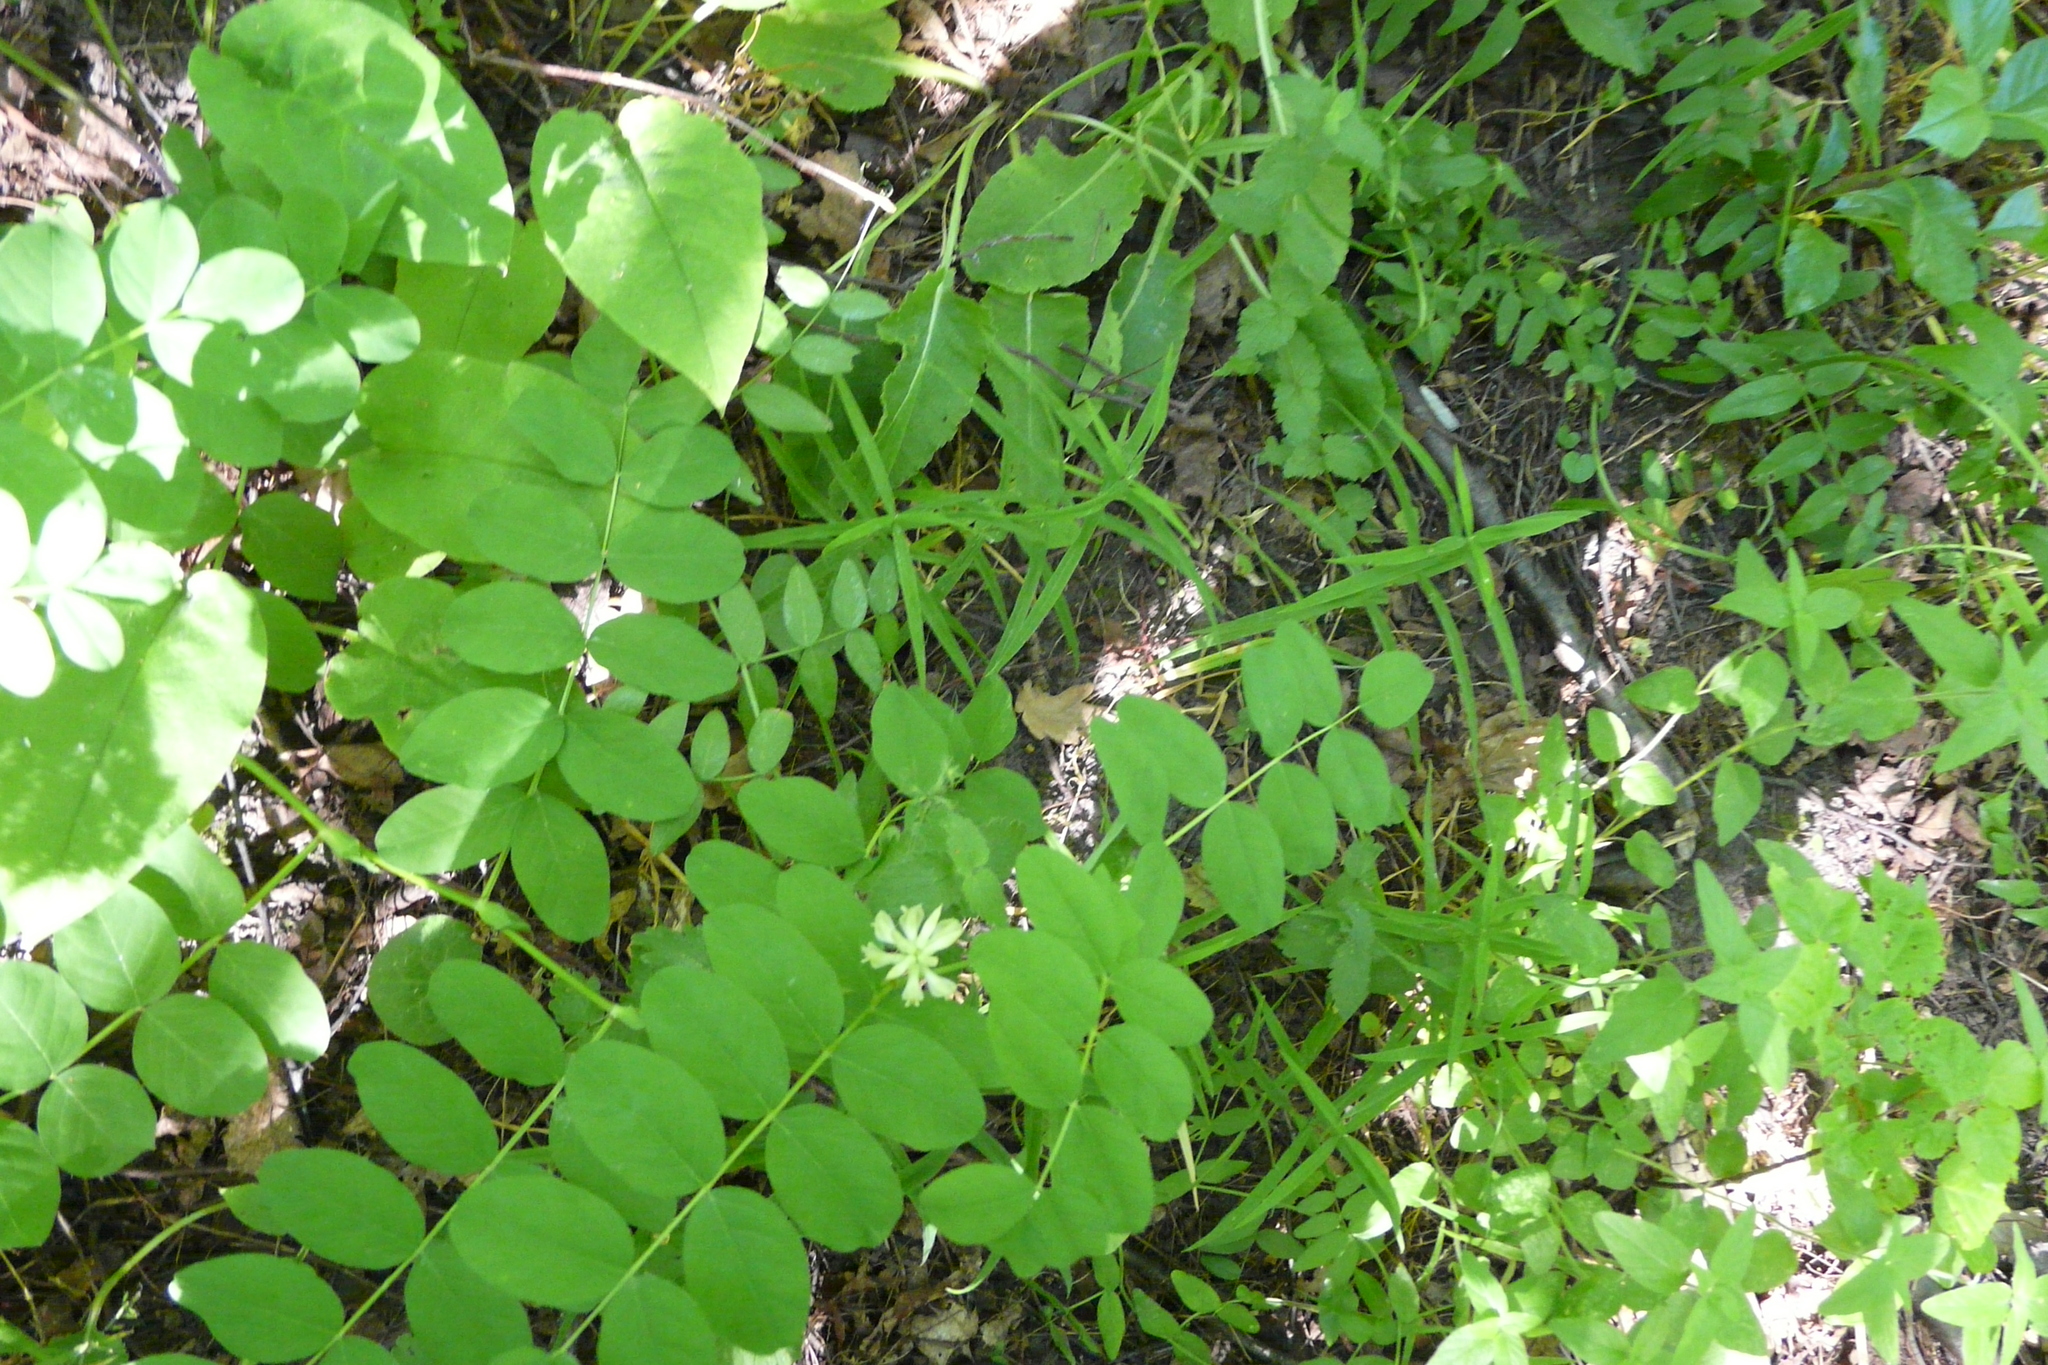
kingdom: Plantae
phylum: Tracheophyta
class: Magnoliopsida
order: Fabales
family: Fabaceae
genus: Astragalus
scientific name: Astragalus glycyphyllos
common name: Wild liquorice
